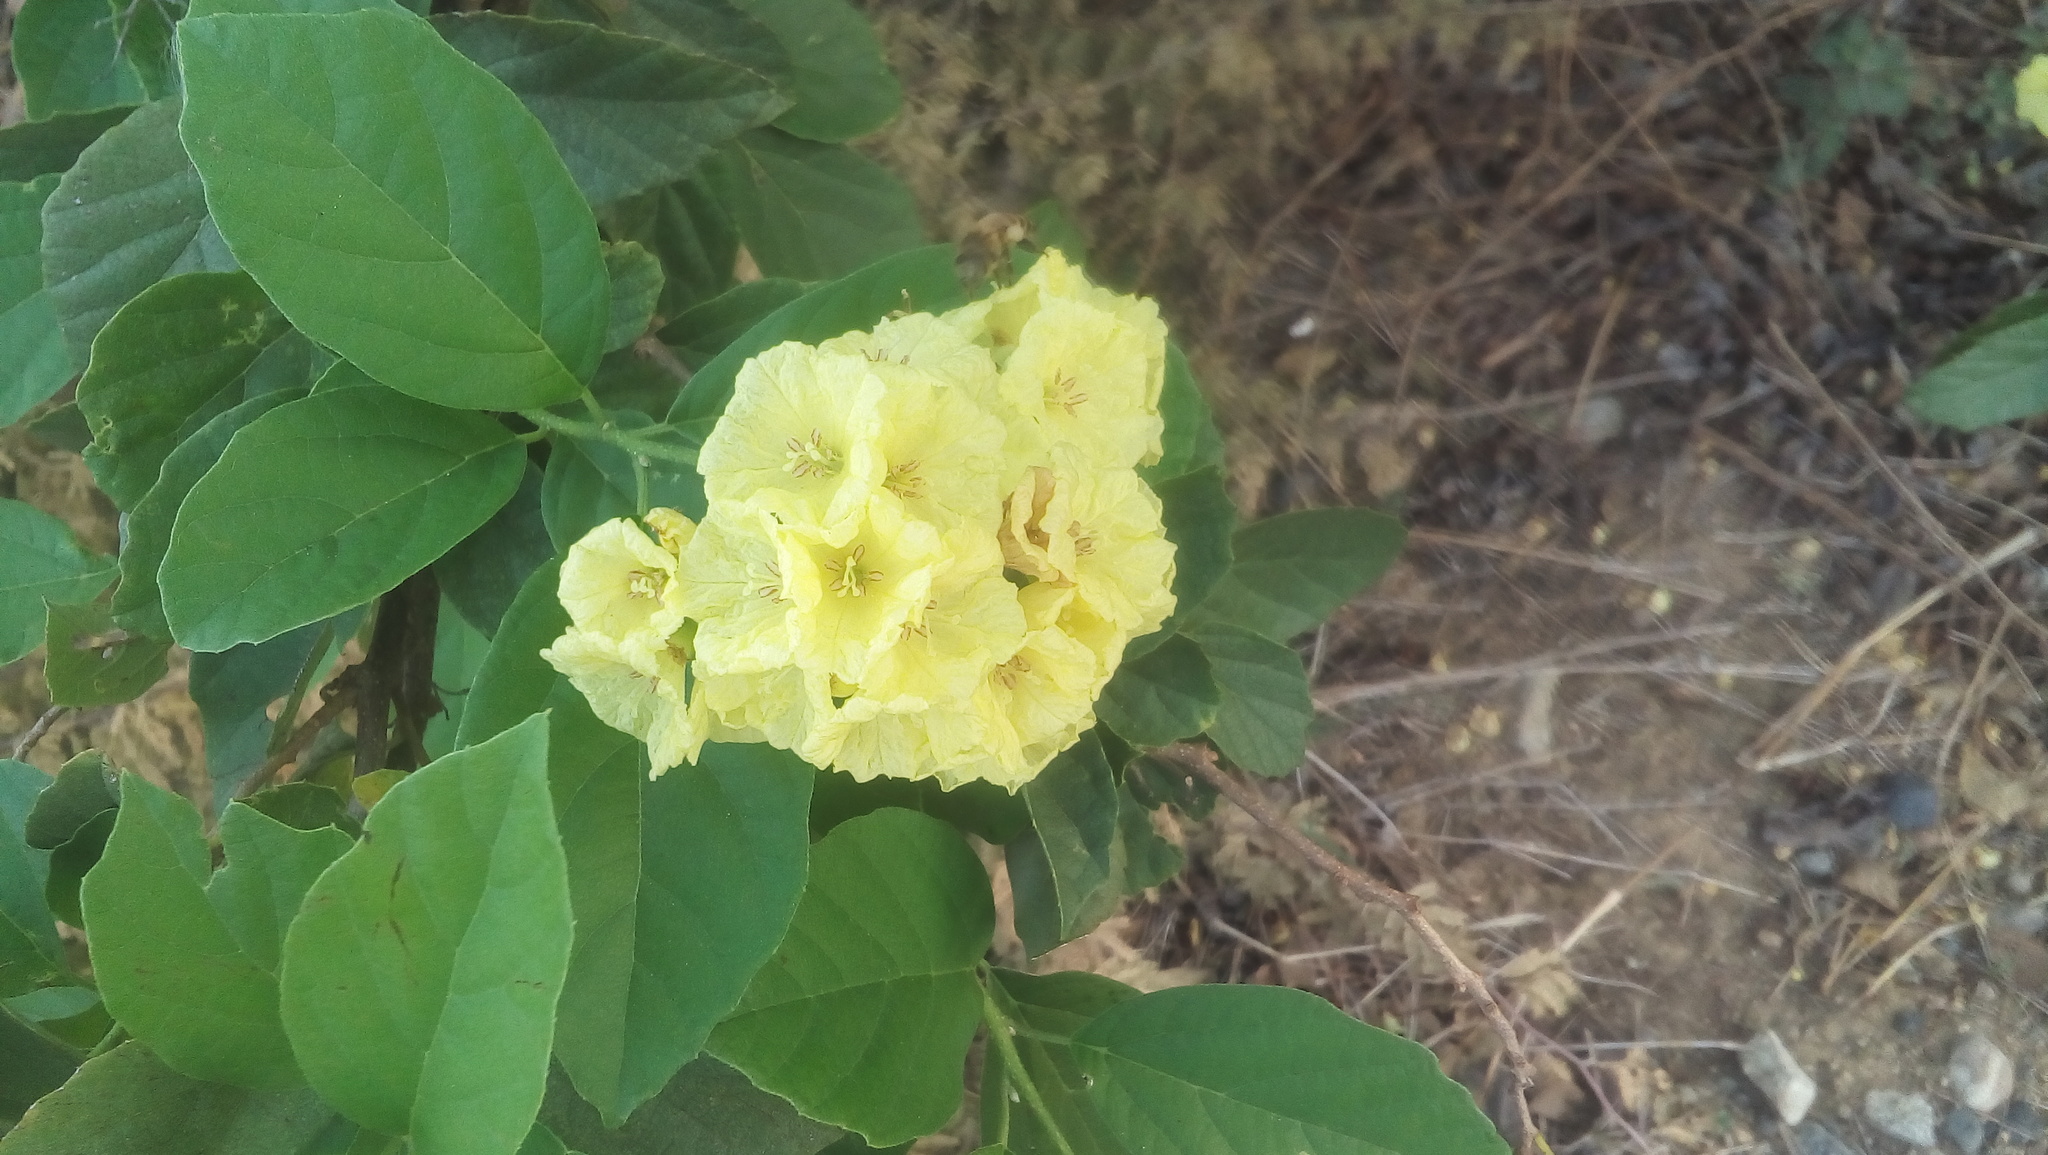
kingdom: Plantae
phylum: Tracheophyta
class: Magnoliopsida
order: Boraginales
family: Cordiaceae
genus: Cordia
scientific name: Cordia dentata
